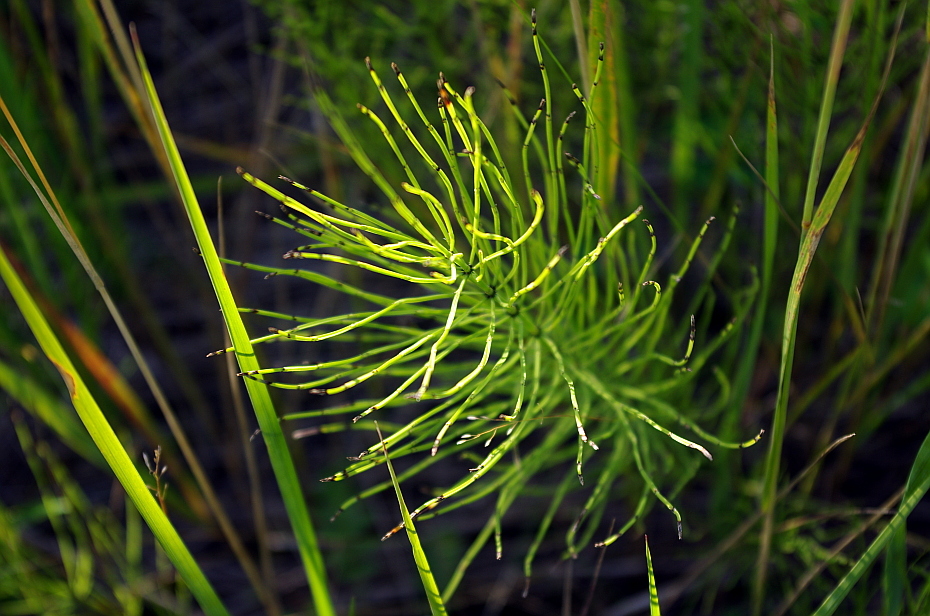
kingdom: Plantae
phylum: Tracheophyta
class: Polypodiopsida
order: Equisetales
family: Equisetaceae
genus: Equisetum
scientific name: Equisetum arvense
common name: Field horsetail
